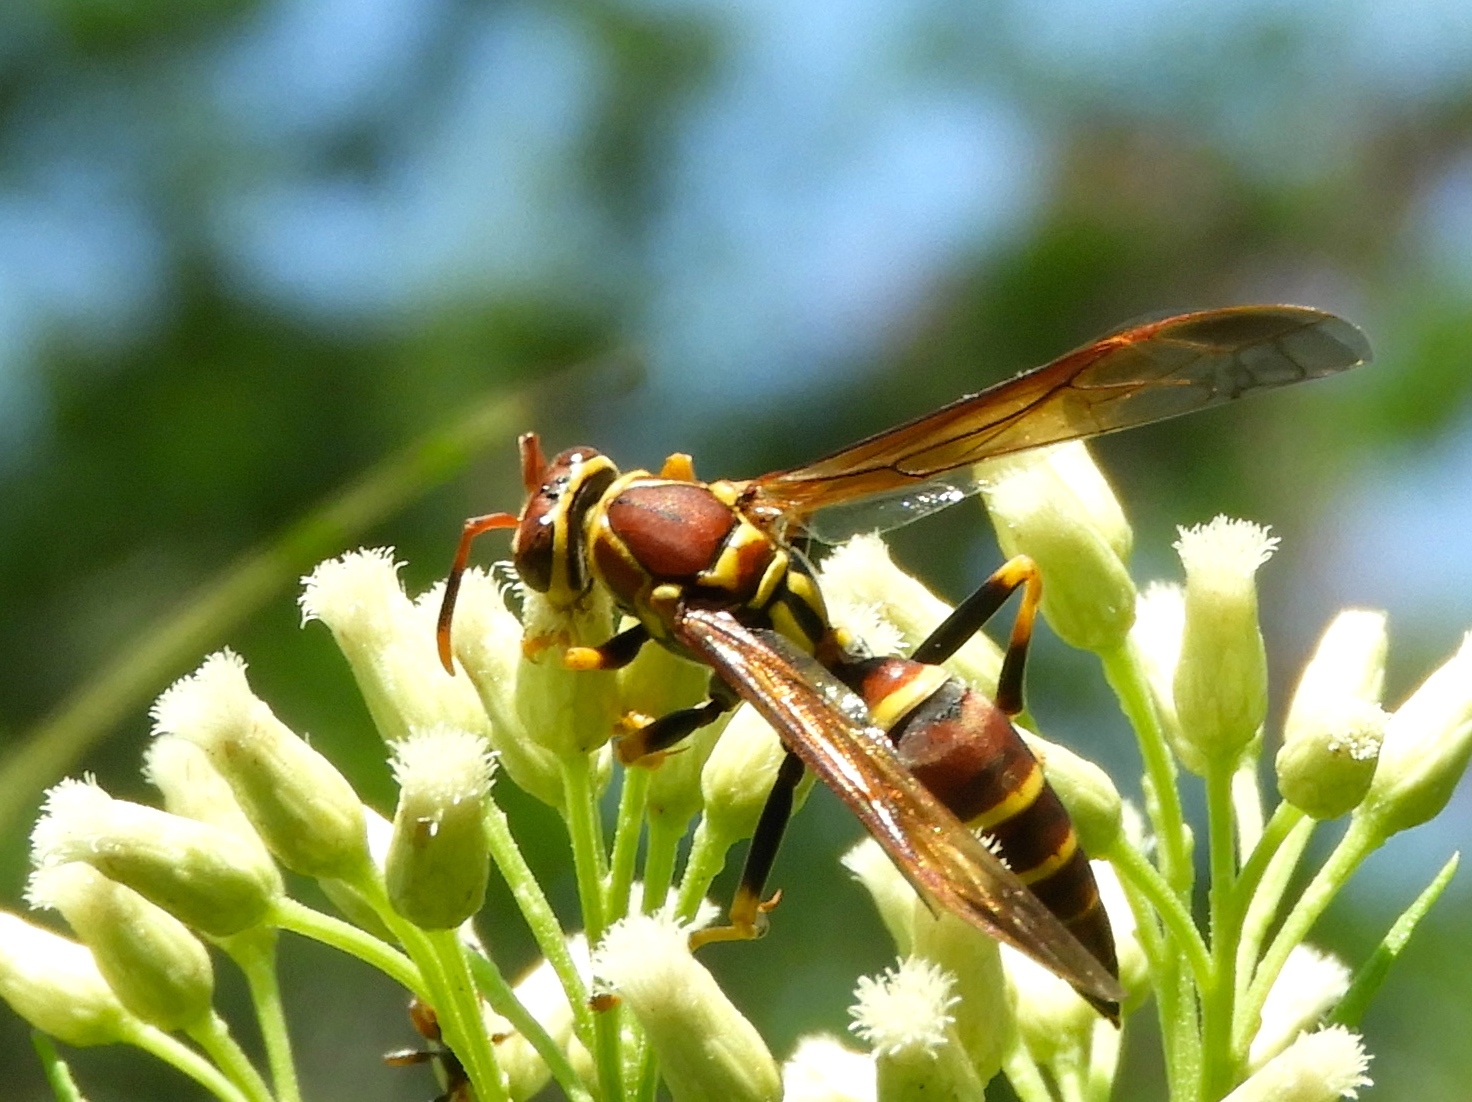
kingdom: Animalia
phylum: Arthropoda
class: Insecta
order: Hymenoptera
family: Eumenidae
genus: Polistes
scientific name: Polistes
